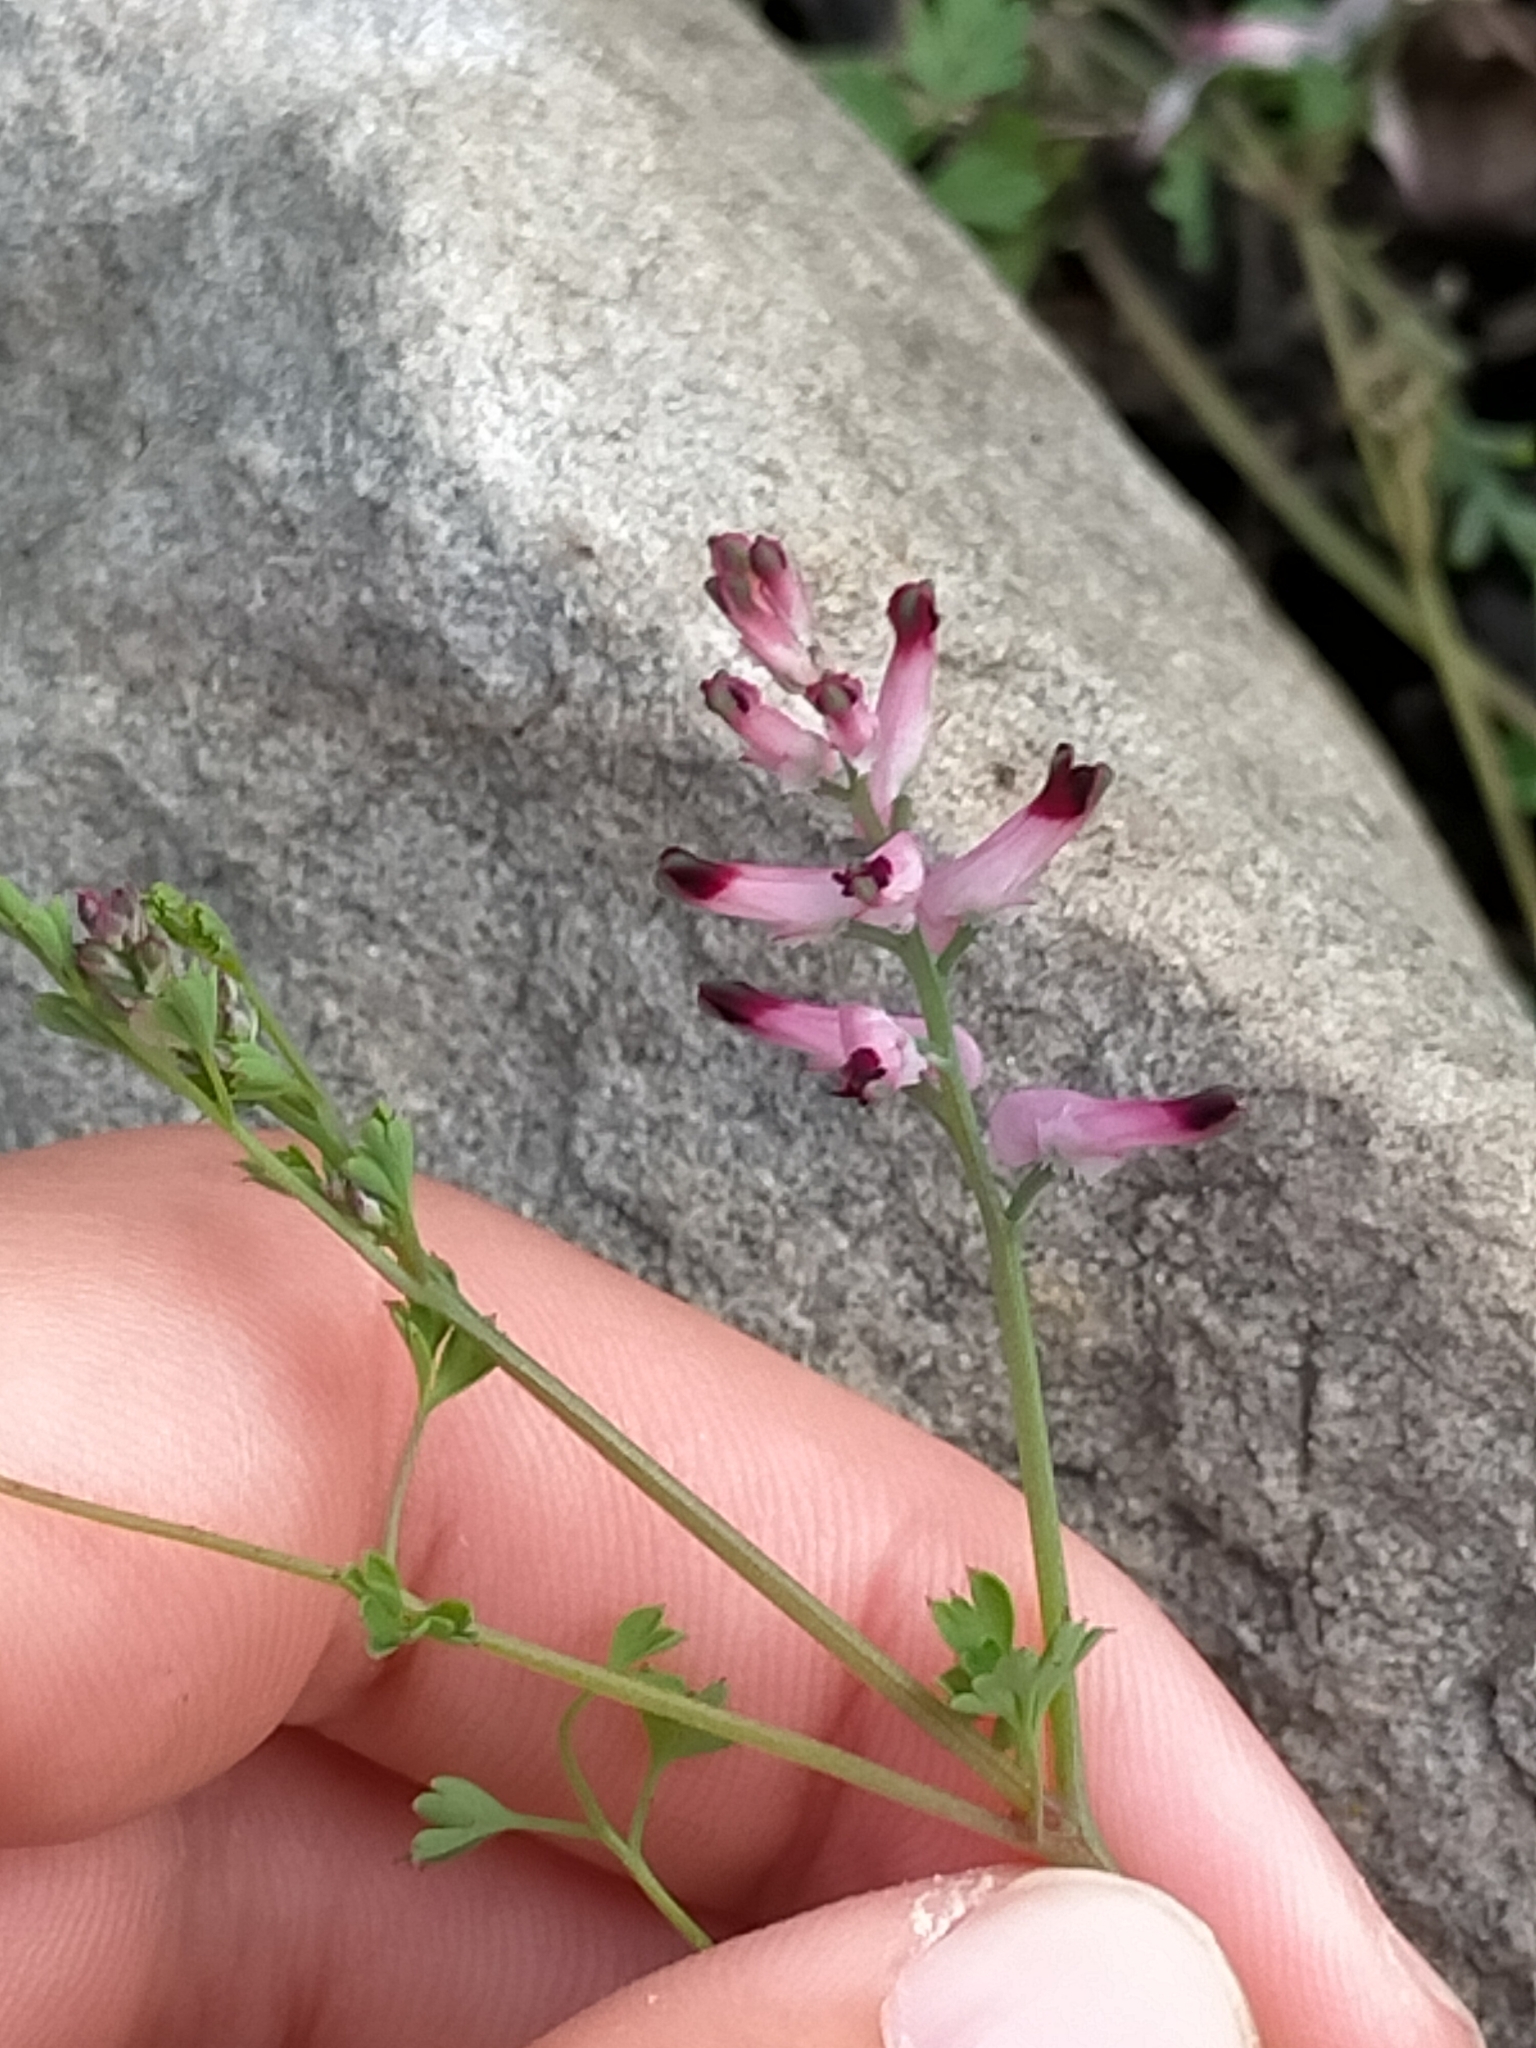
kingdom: Plantae
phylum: Tracheophyta
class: Magnoliopsida
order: Ranunculales
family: Papaveraceae
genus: Fumaria
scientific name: Fumaria muralis
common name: Common ramping-fumitory
